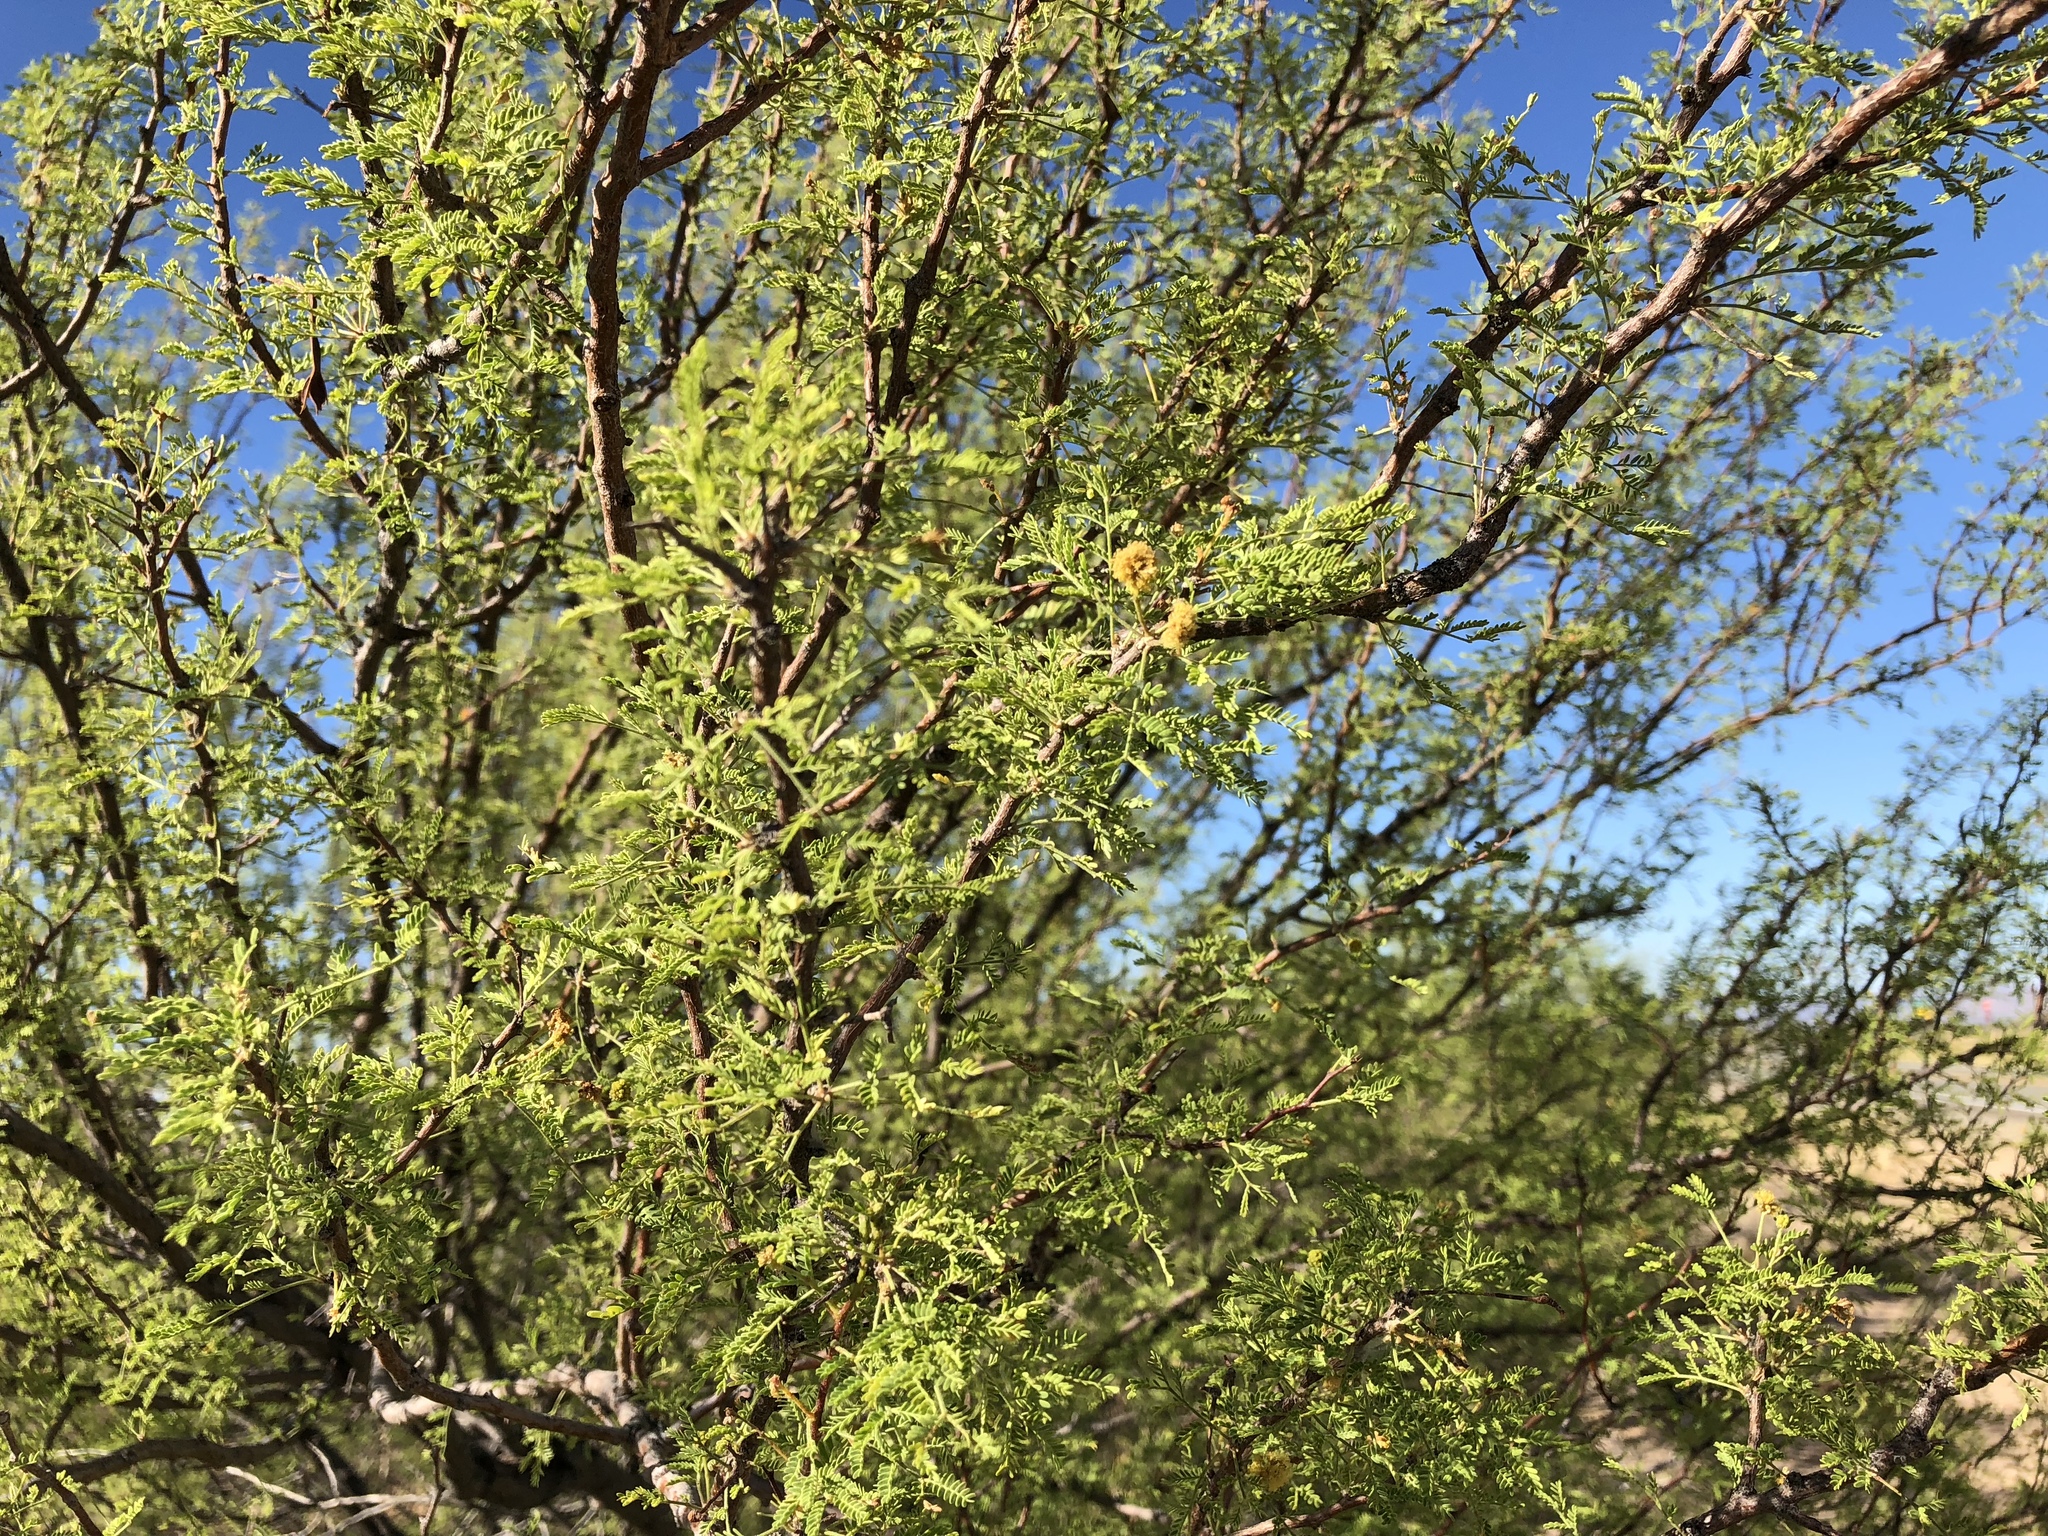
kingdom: Plantae
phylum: Tracheophyta
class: Magnoliopsida
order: Fabales
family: Fabaceae
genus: Vachellia
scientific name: Vachellia constricta
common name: Mescat acacia
